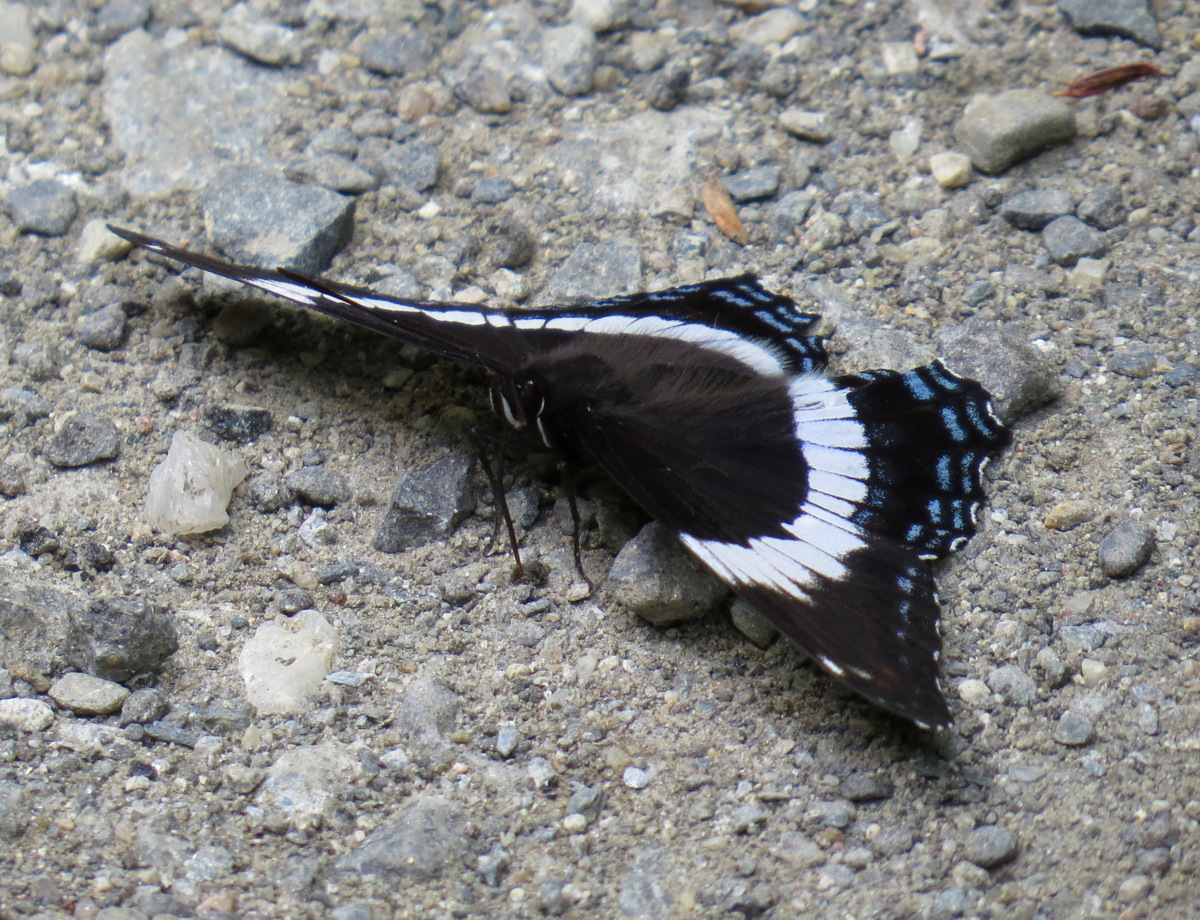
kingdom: Animalia
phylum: Arthropoda
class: Insecta
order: Lepidoptera
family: Nymphalidae
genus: Limenitis
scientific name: Limenitis arthemis
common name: Red-spotted admiral
